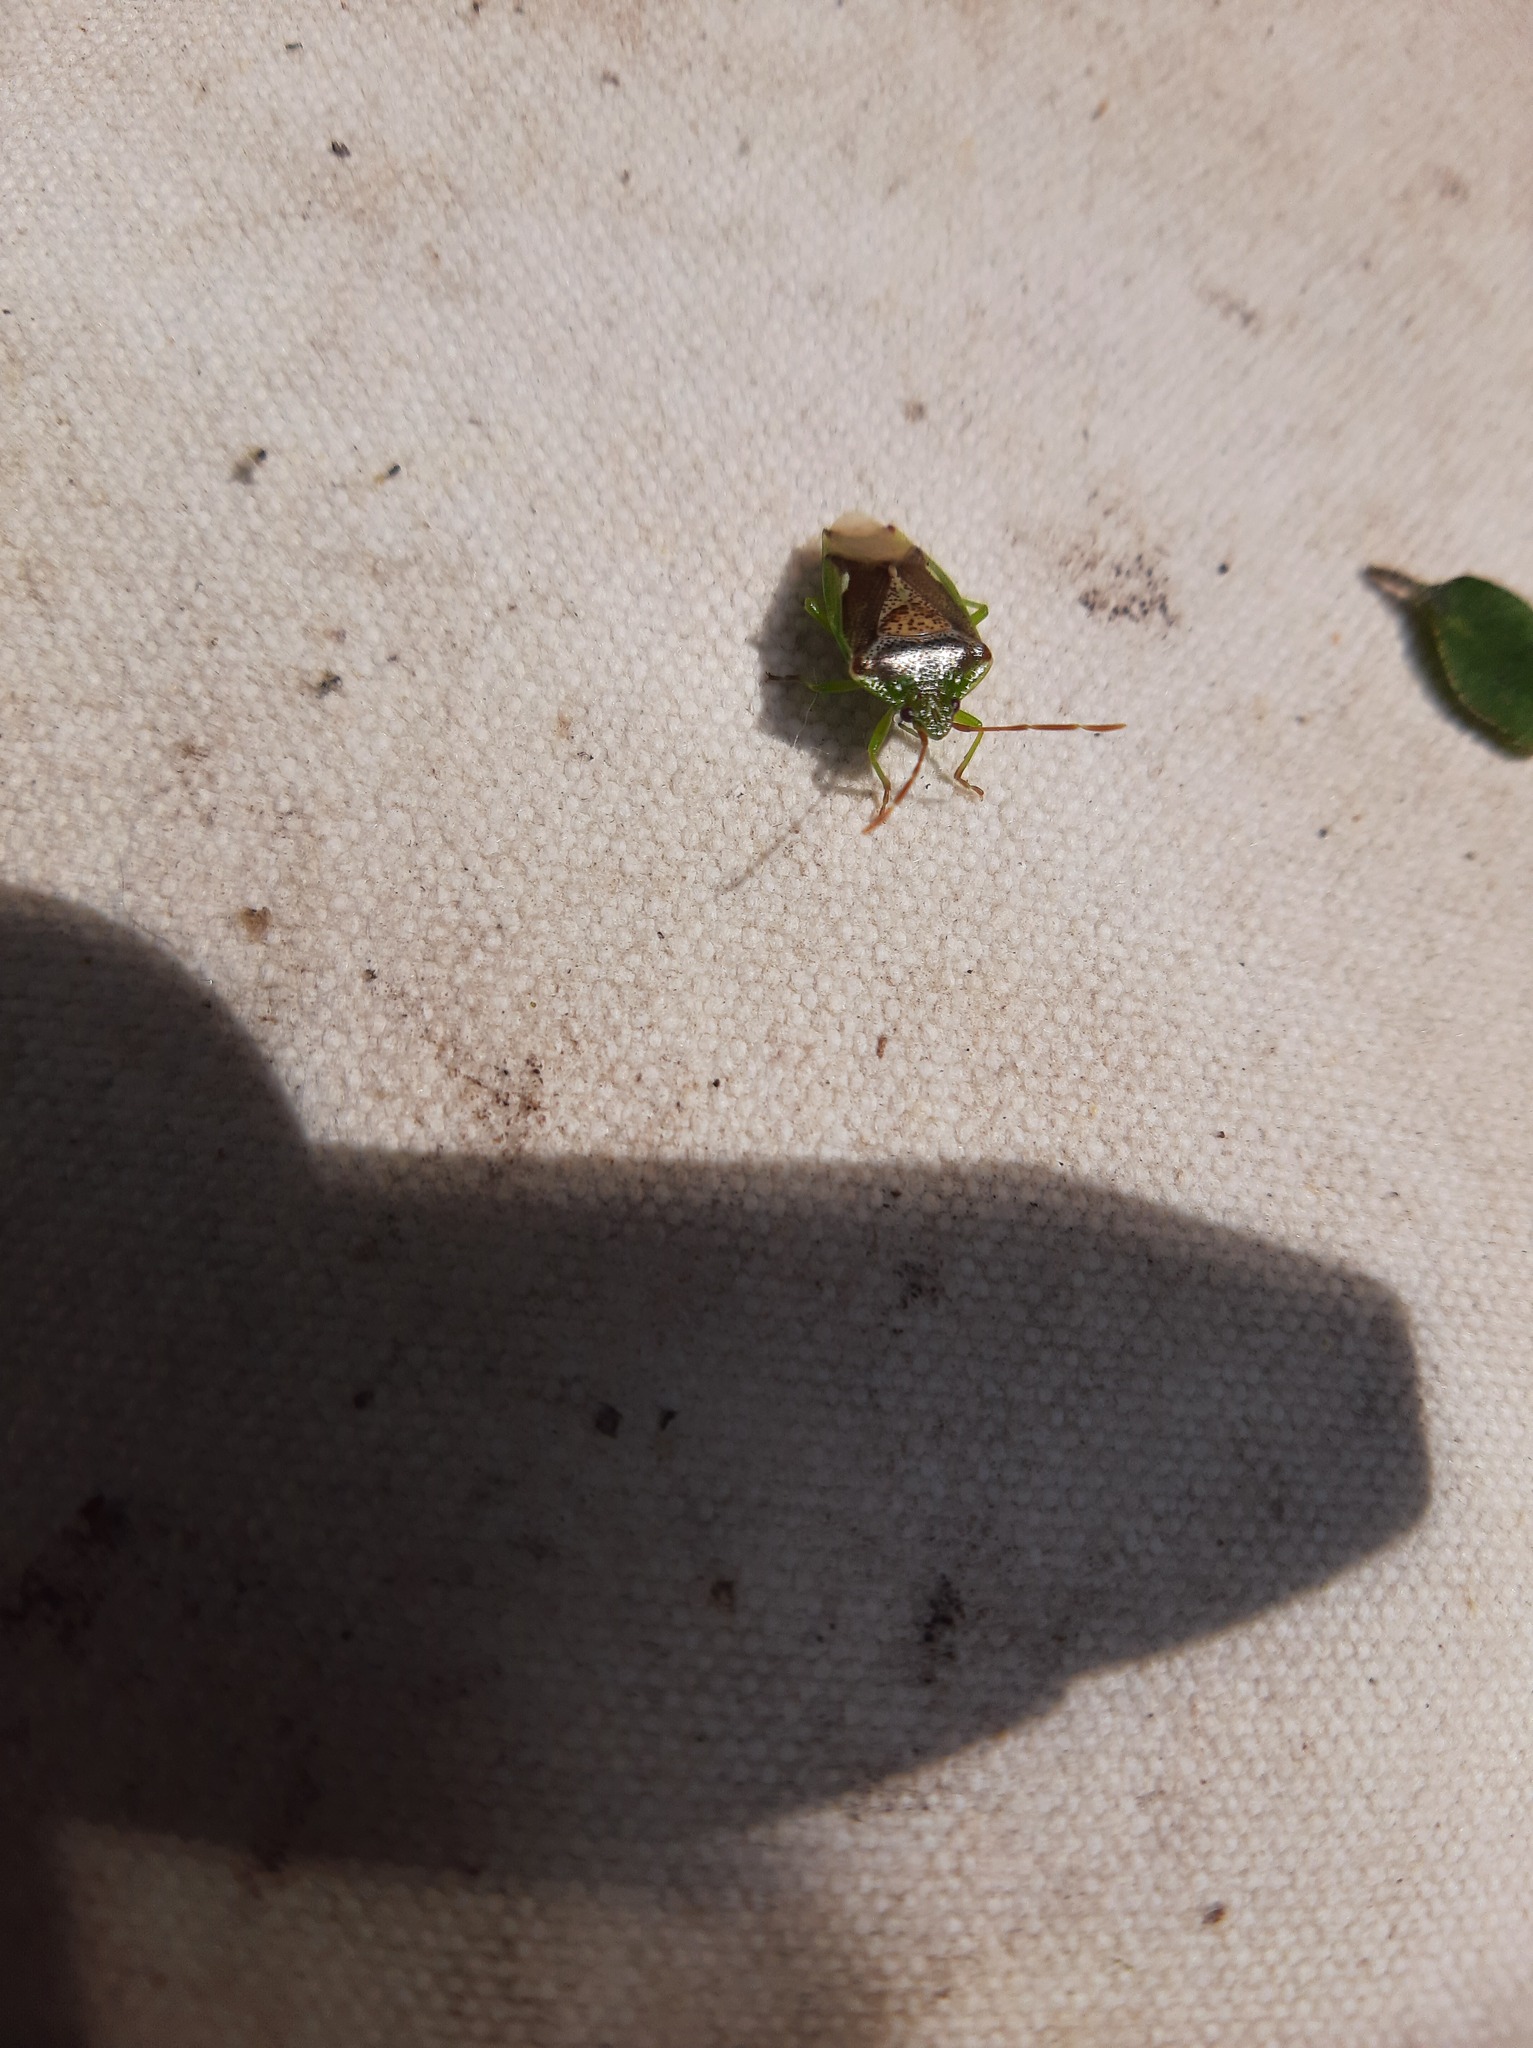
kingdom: Animalia
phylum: Arthropoda
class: Insecta
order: Hemiptera
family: Acanthosomatidae
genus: Oncacontias
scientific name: Oncacontias vittatus
